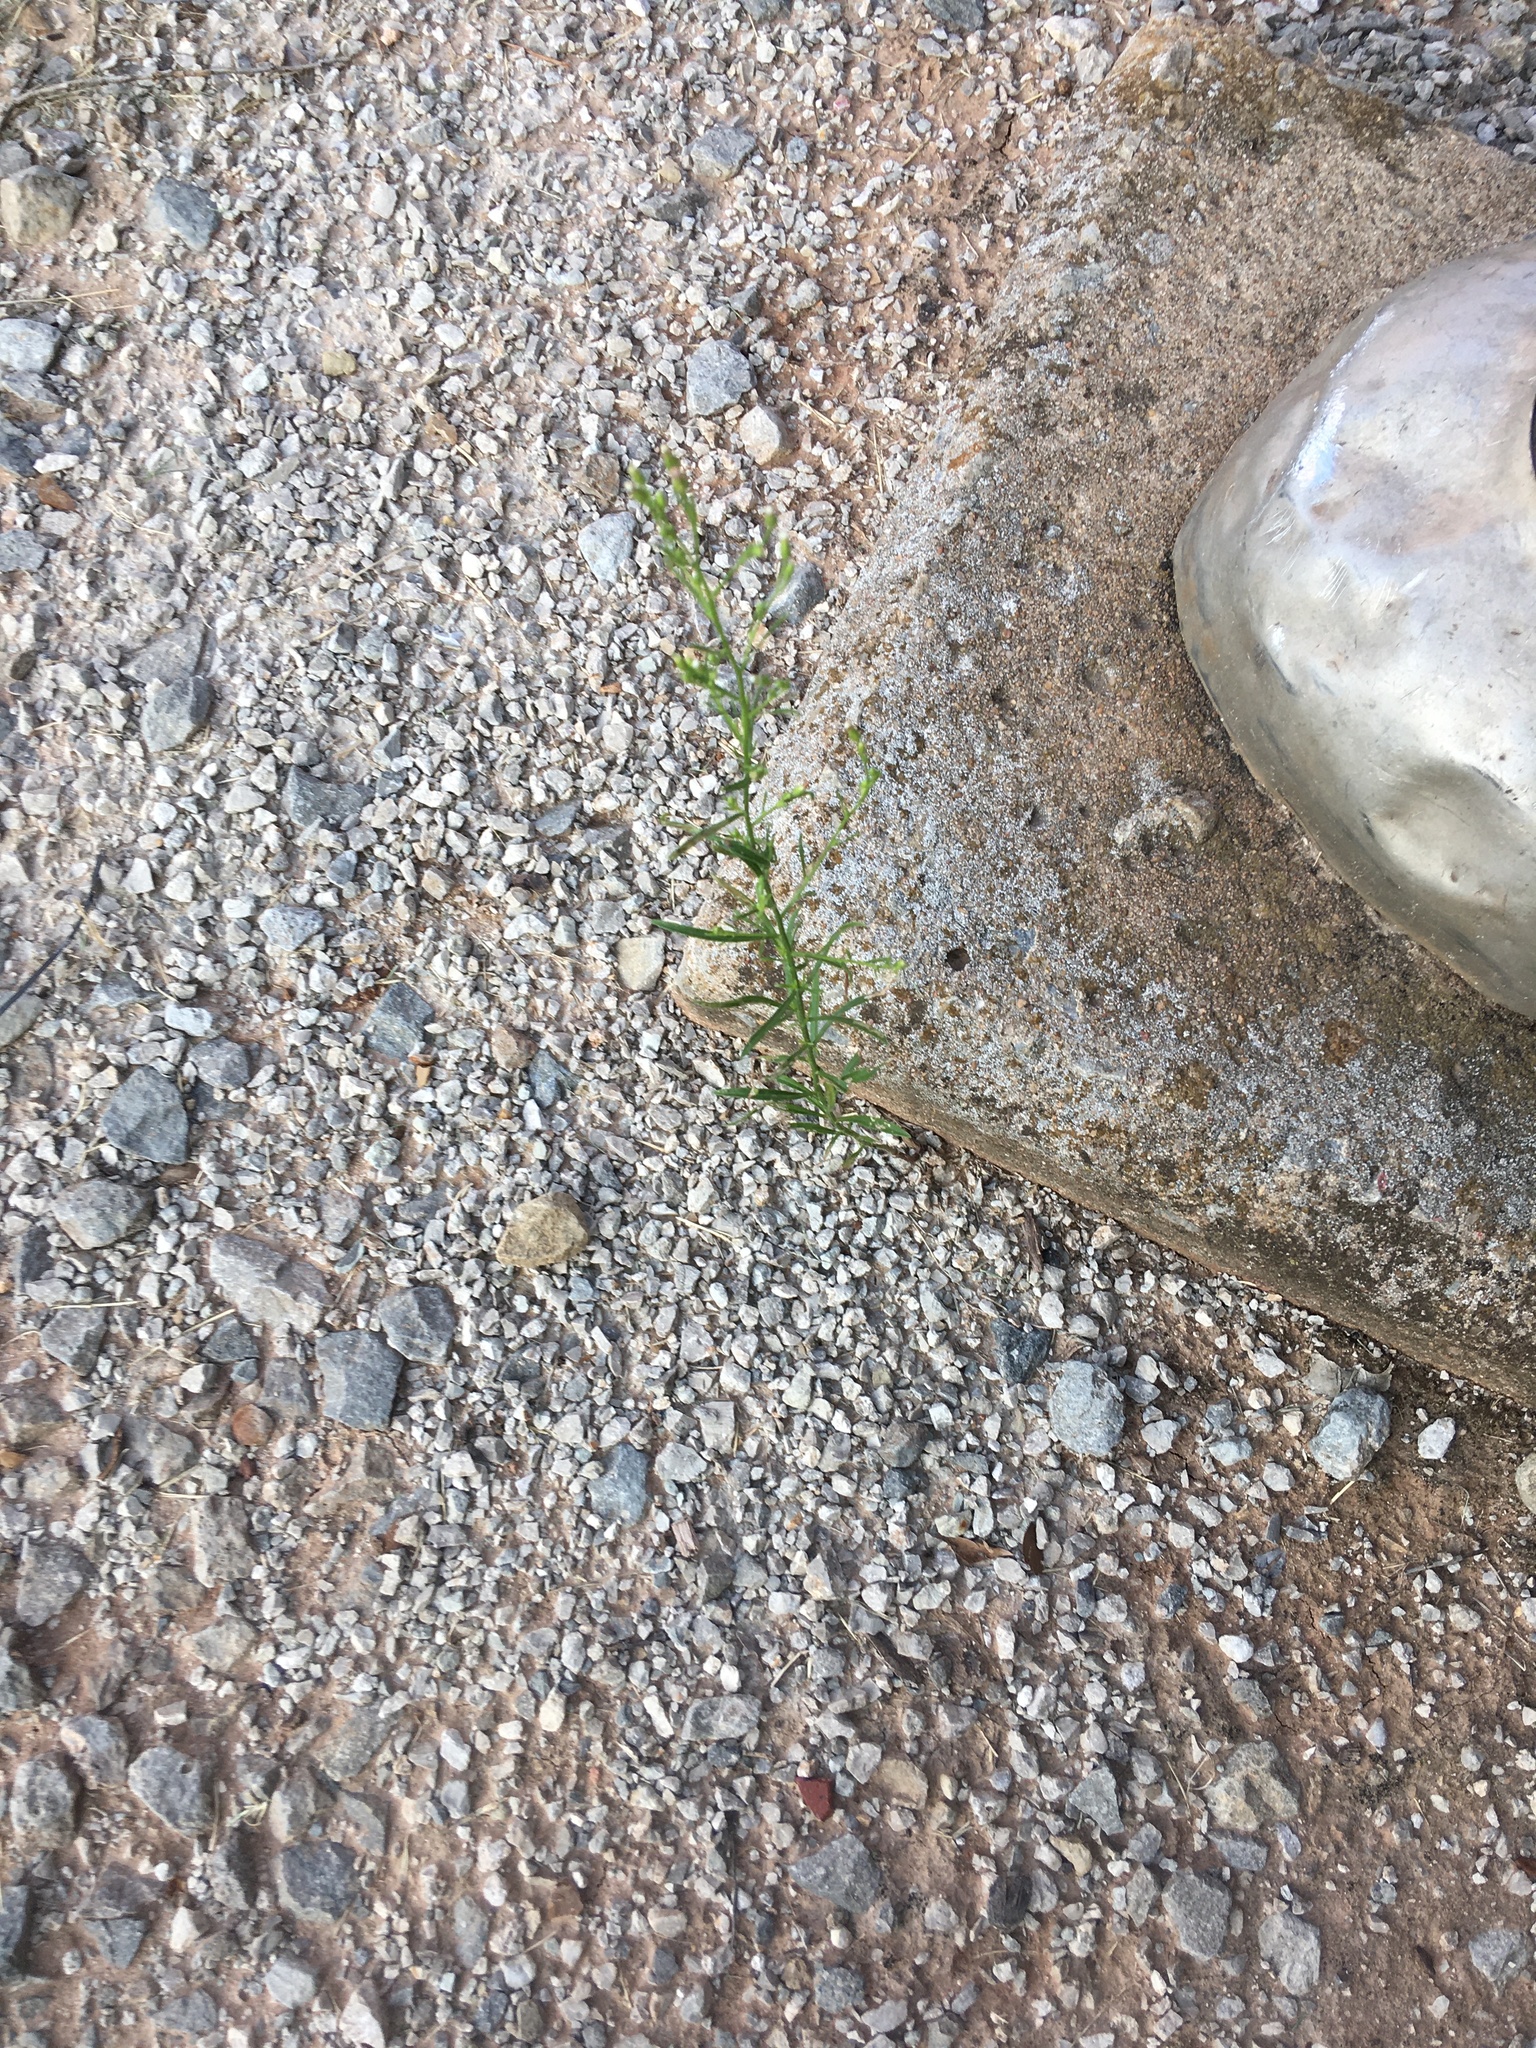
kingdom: Plantae
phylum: Tracheophyta
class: Magnoliopsida
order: Asterales
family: Asteraceae
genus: Erigeron
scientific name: Erigeron canadensis
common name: Canadian fleabane
